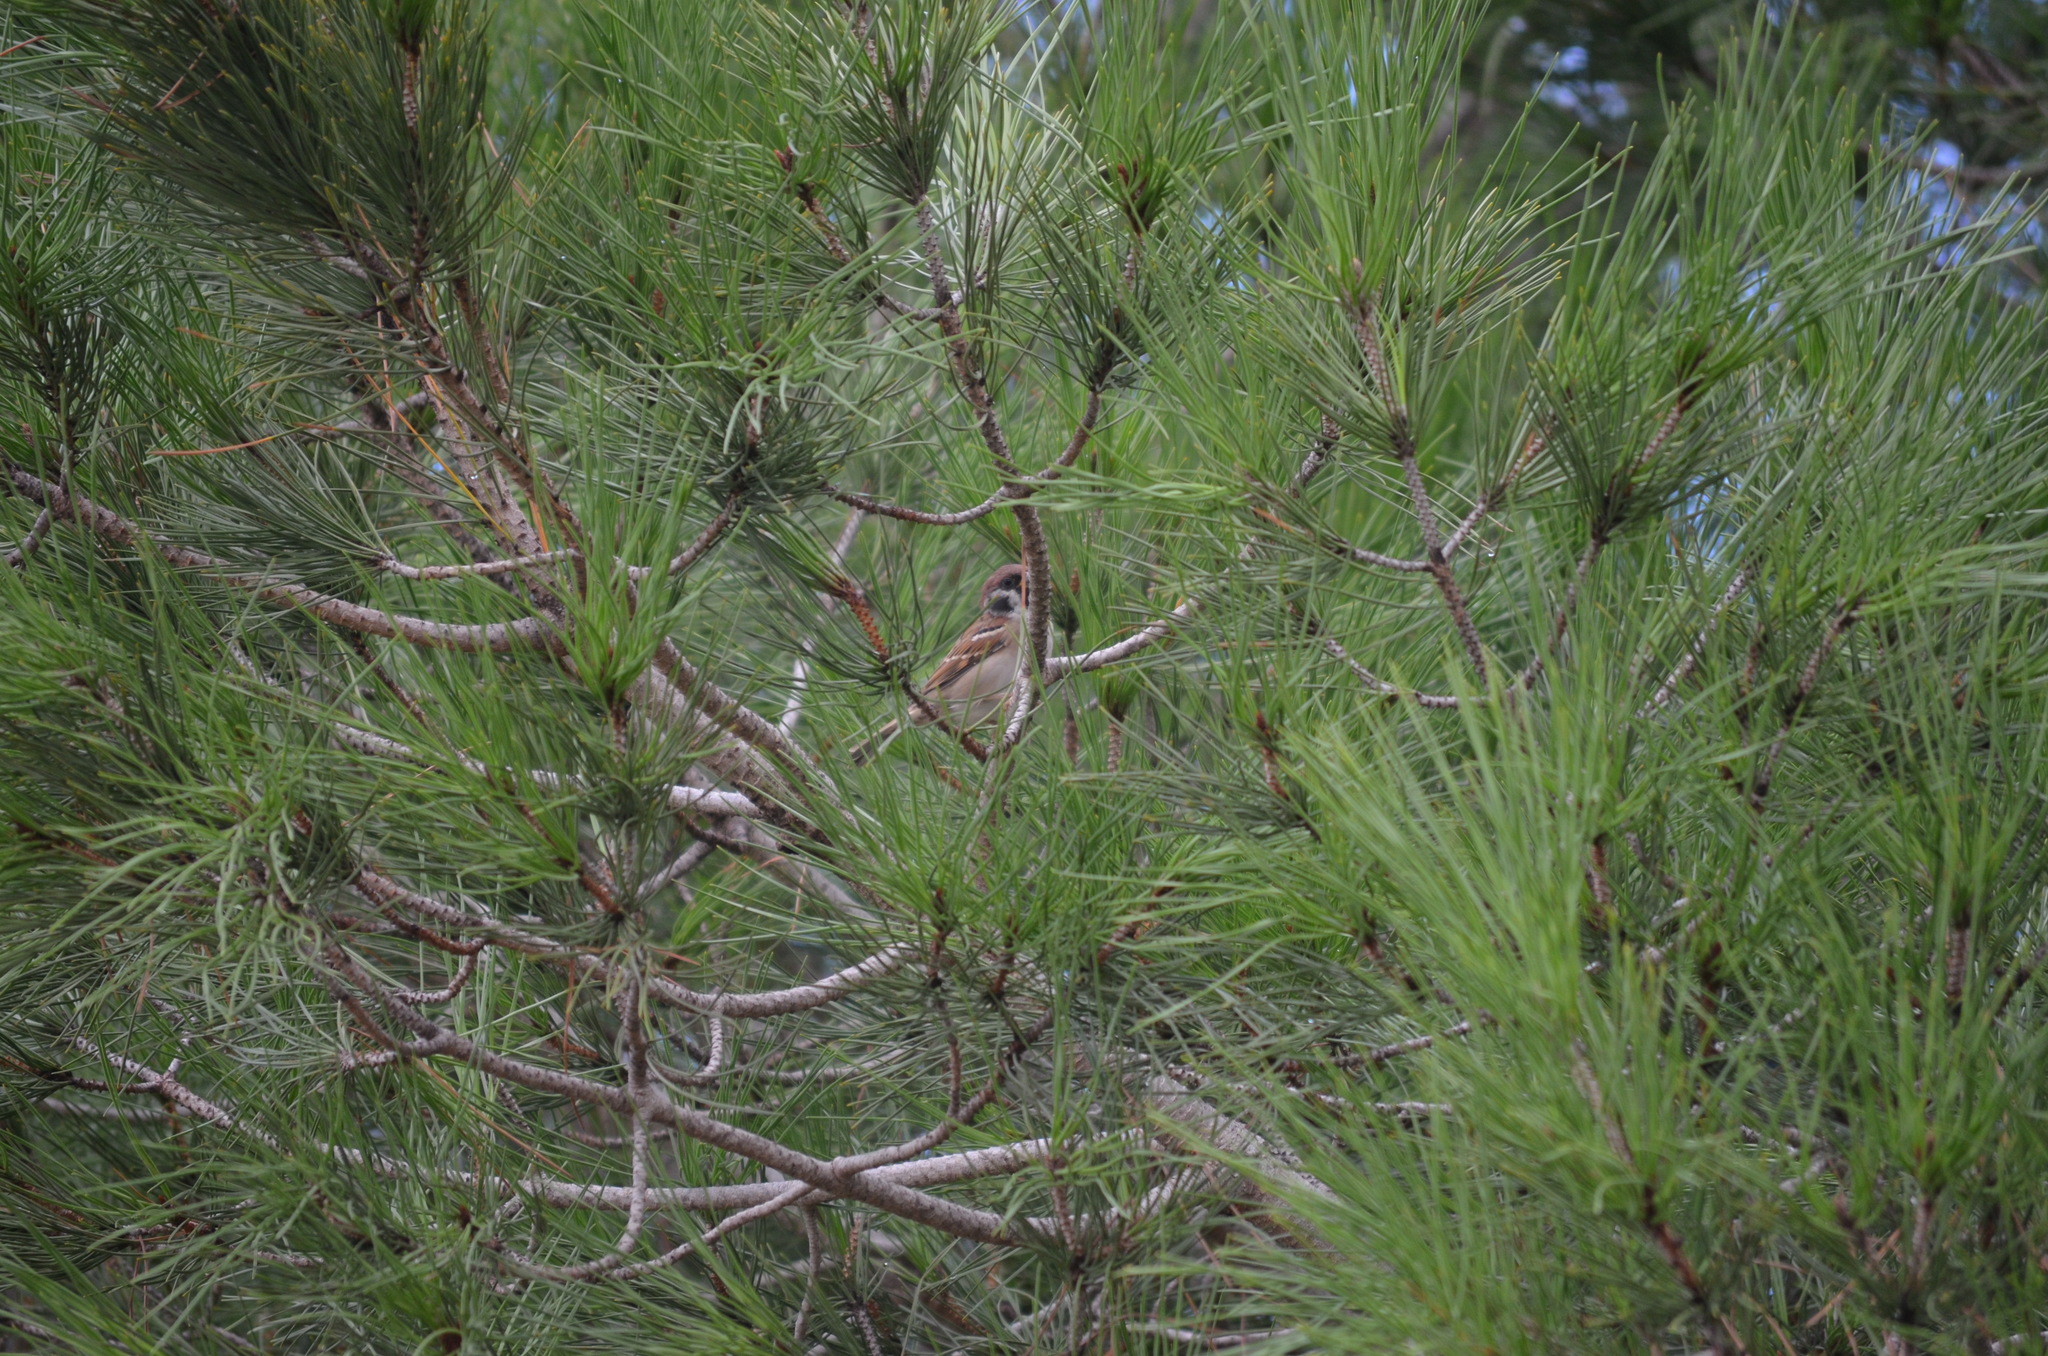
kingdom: Animalia
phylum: Chordata
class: Aves
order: Passeriformes
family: Passeridae
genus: Passer
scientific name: Passer montanus
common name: Eurasian tree sparrow
